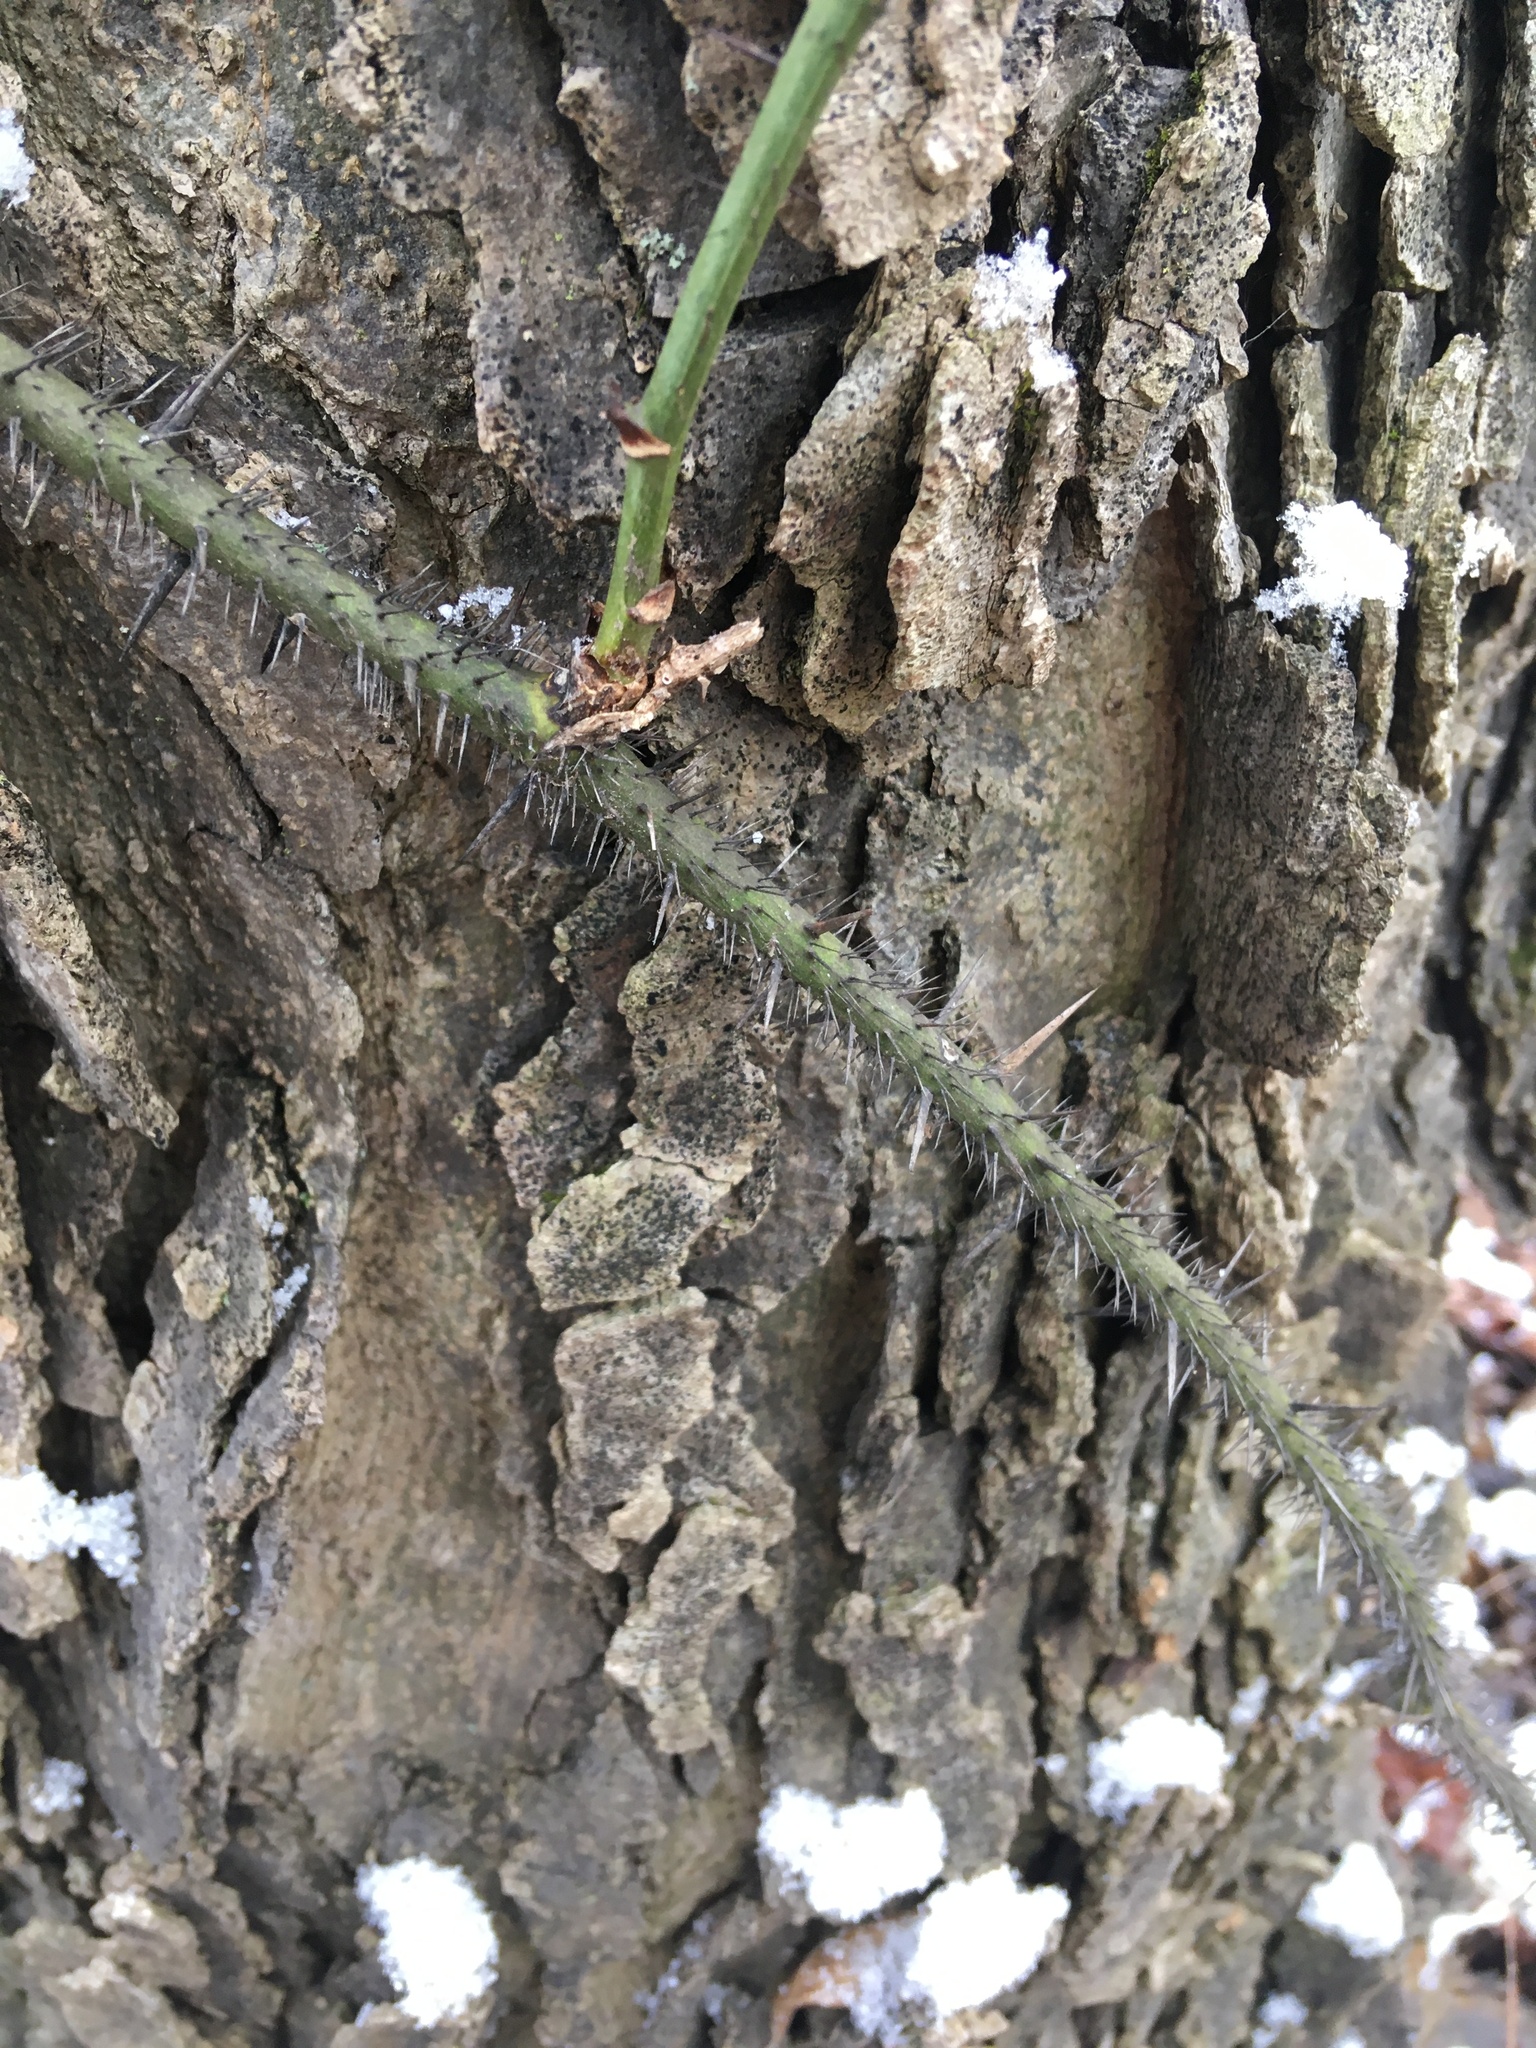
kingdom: Plantae
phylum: Tracheophyta
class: Liliopsida
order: Liliales
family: Smilacaceae
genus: Smilax
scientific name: Smilax tamnoides
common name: Hellfetter
